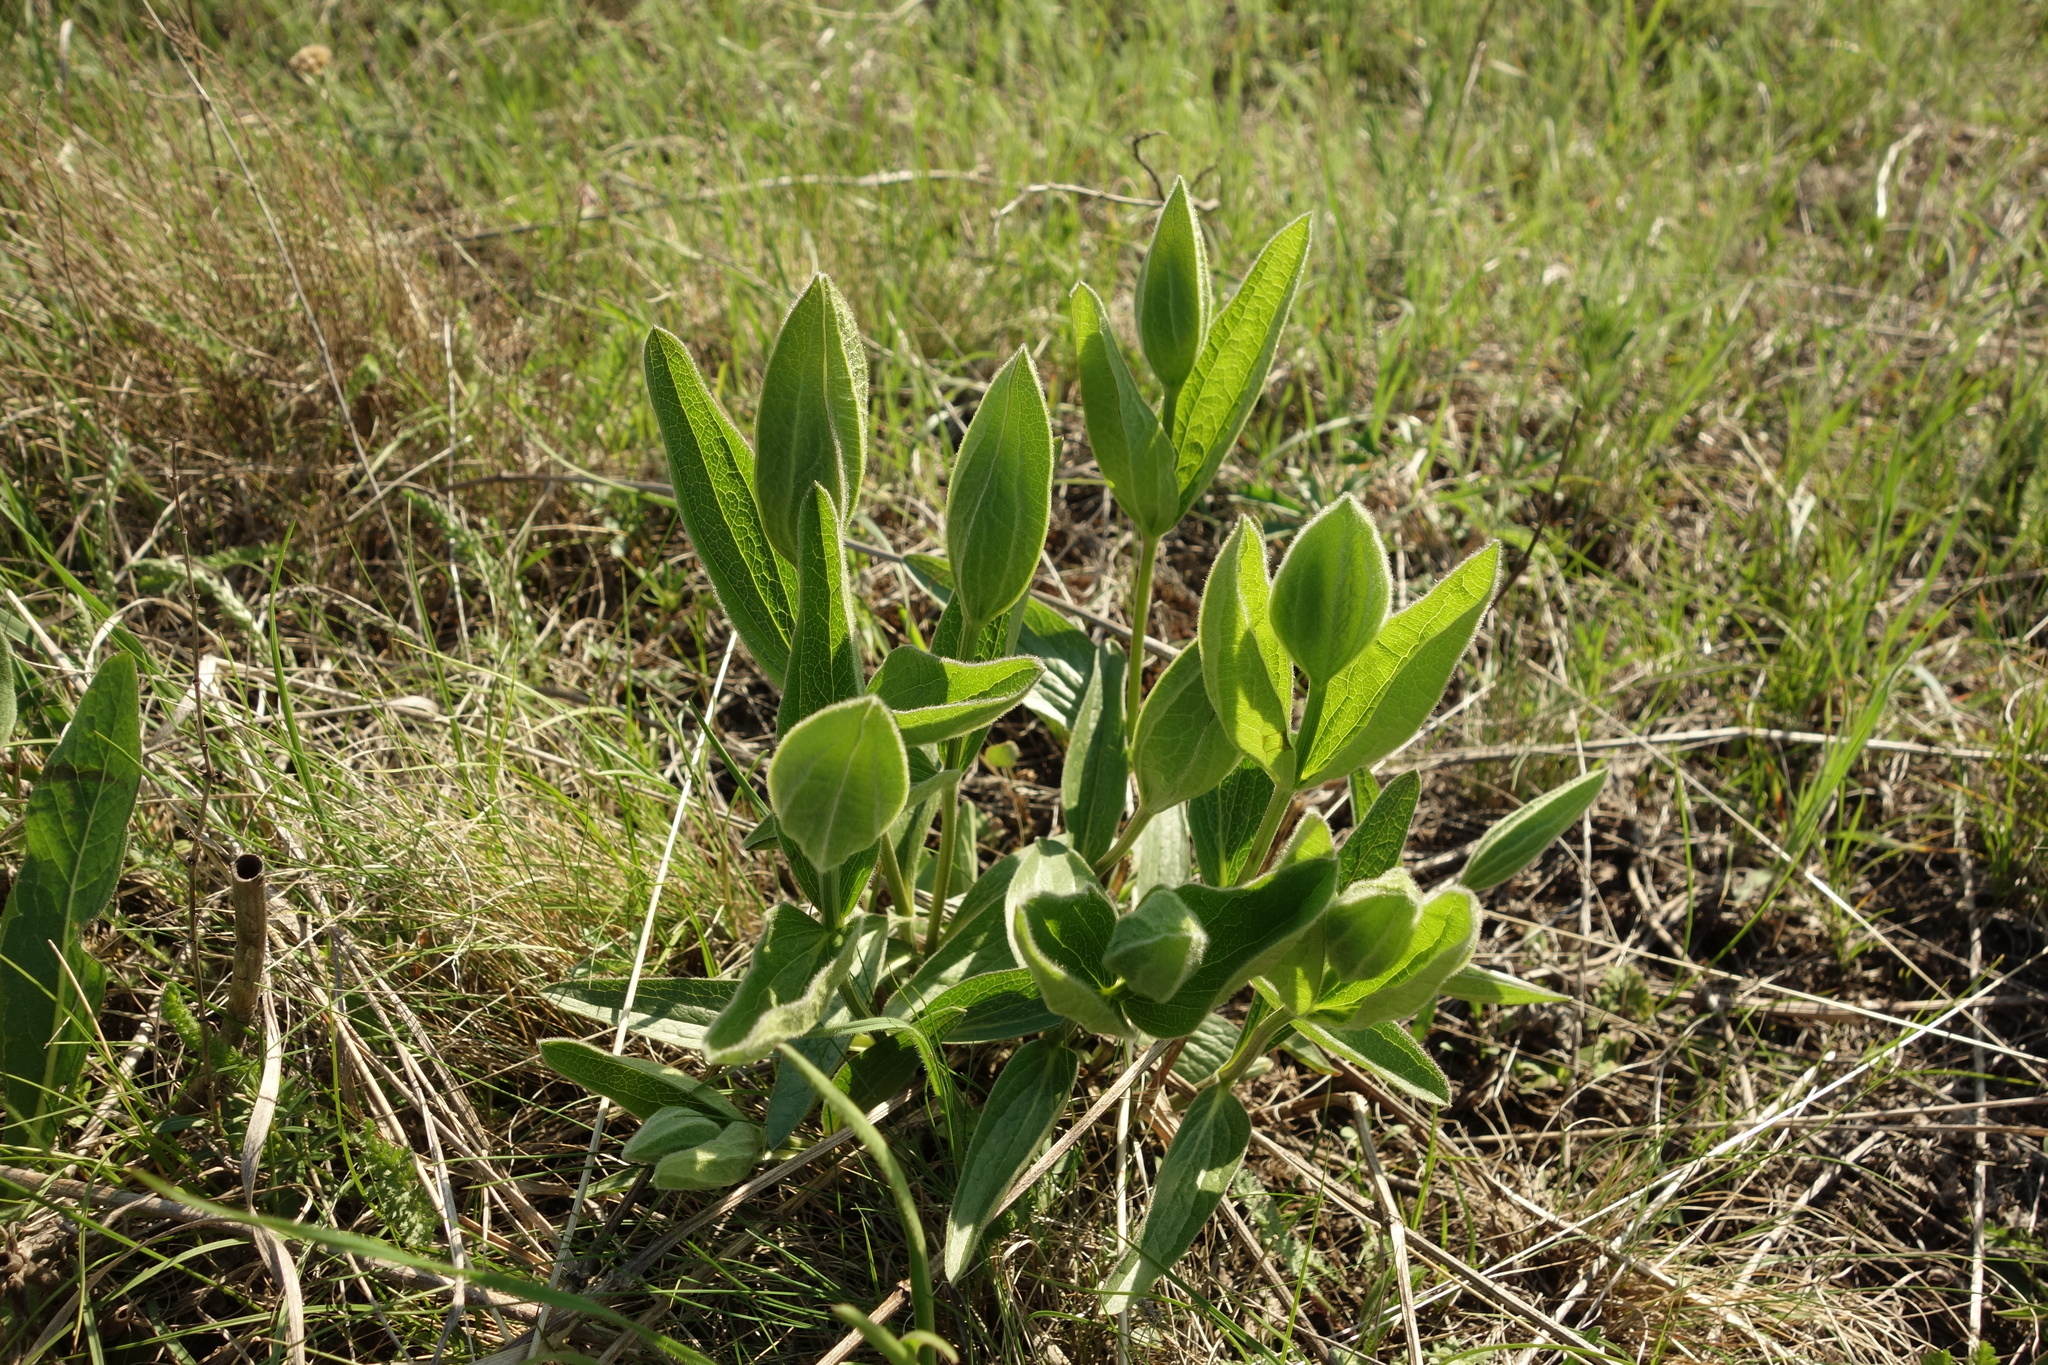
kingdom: Plantae
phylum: Tracheophyta
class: Magnoliopsida
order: Ranunculales
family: Ranunculaceae
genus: Clematis
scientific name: Clematis integrifolia
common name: Solitary clematis
